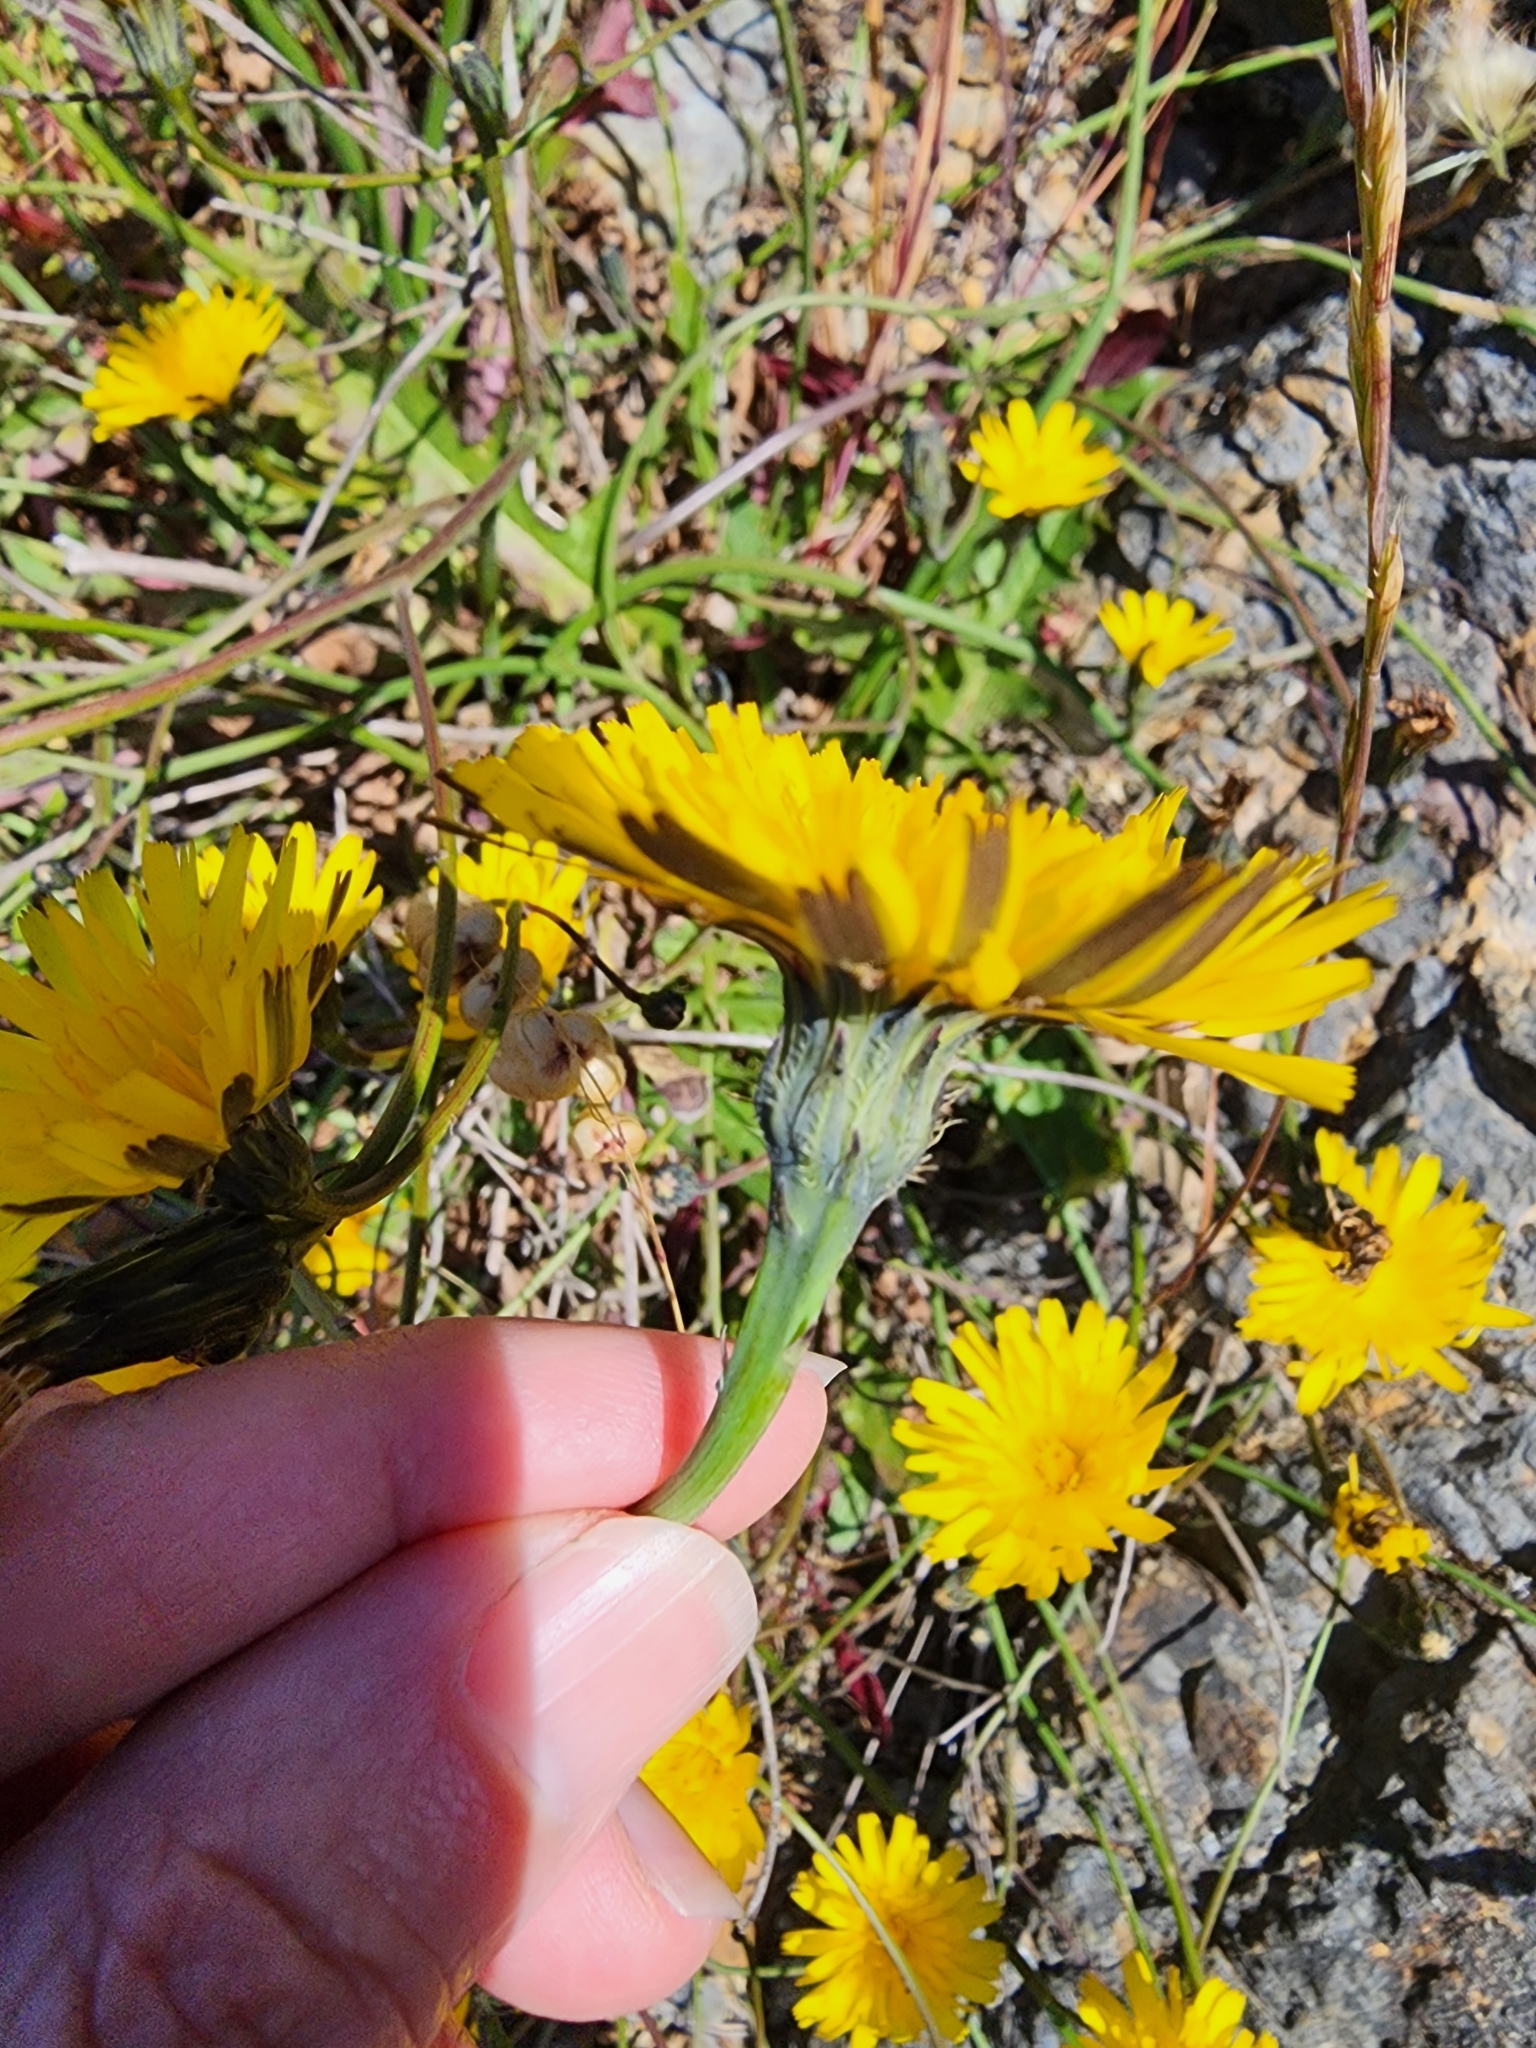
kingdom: Plantae
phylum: Tracheophyta
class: Magnoliopsida
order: Asterales
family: Asteraceae
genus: Hypochaeris
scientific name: Hypochaeris radicata
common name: Flatweed
